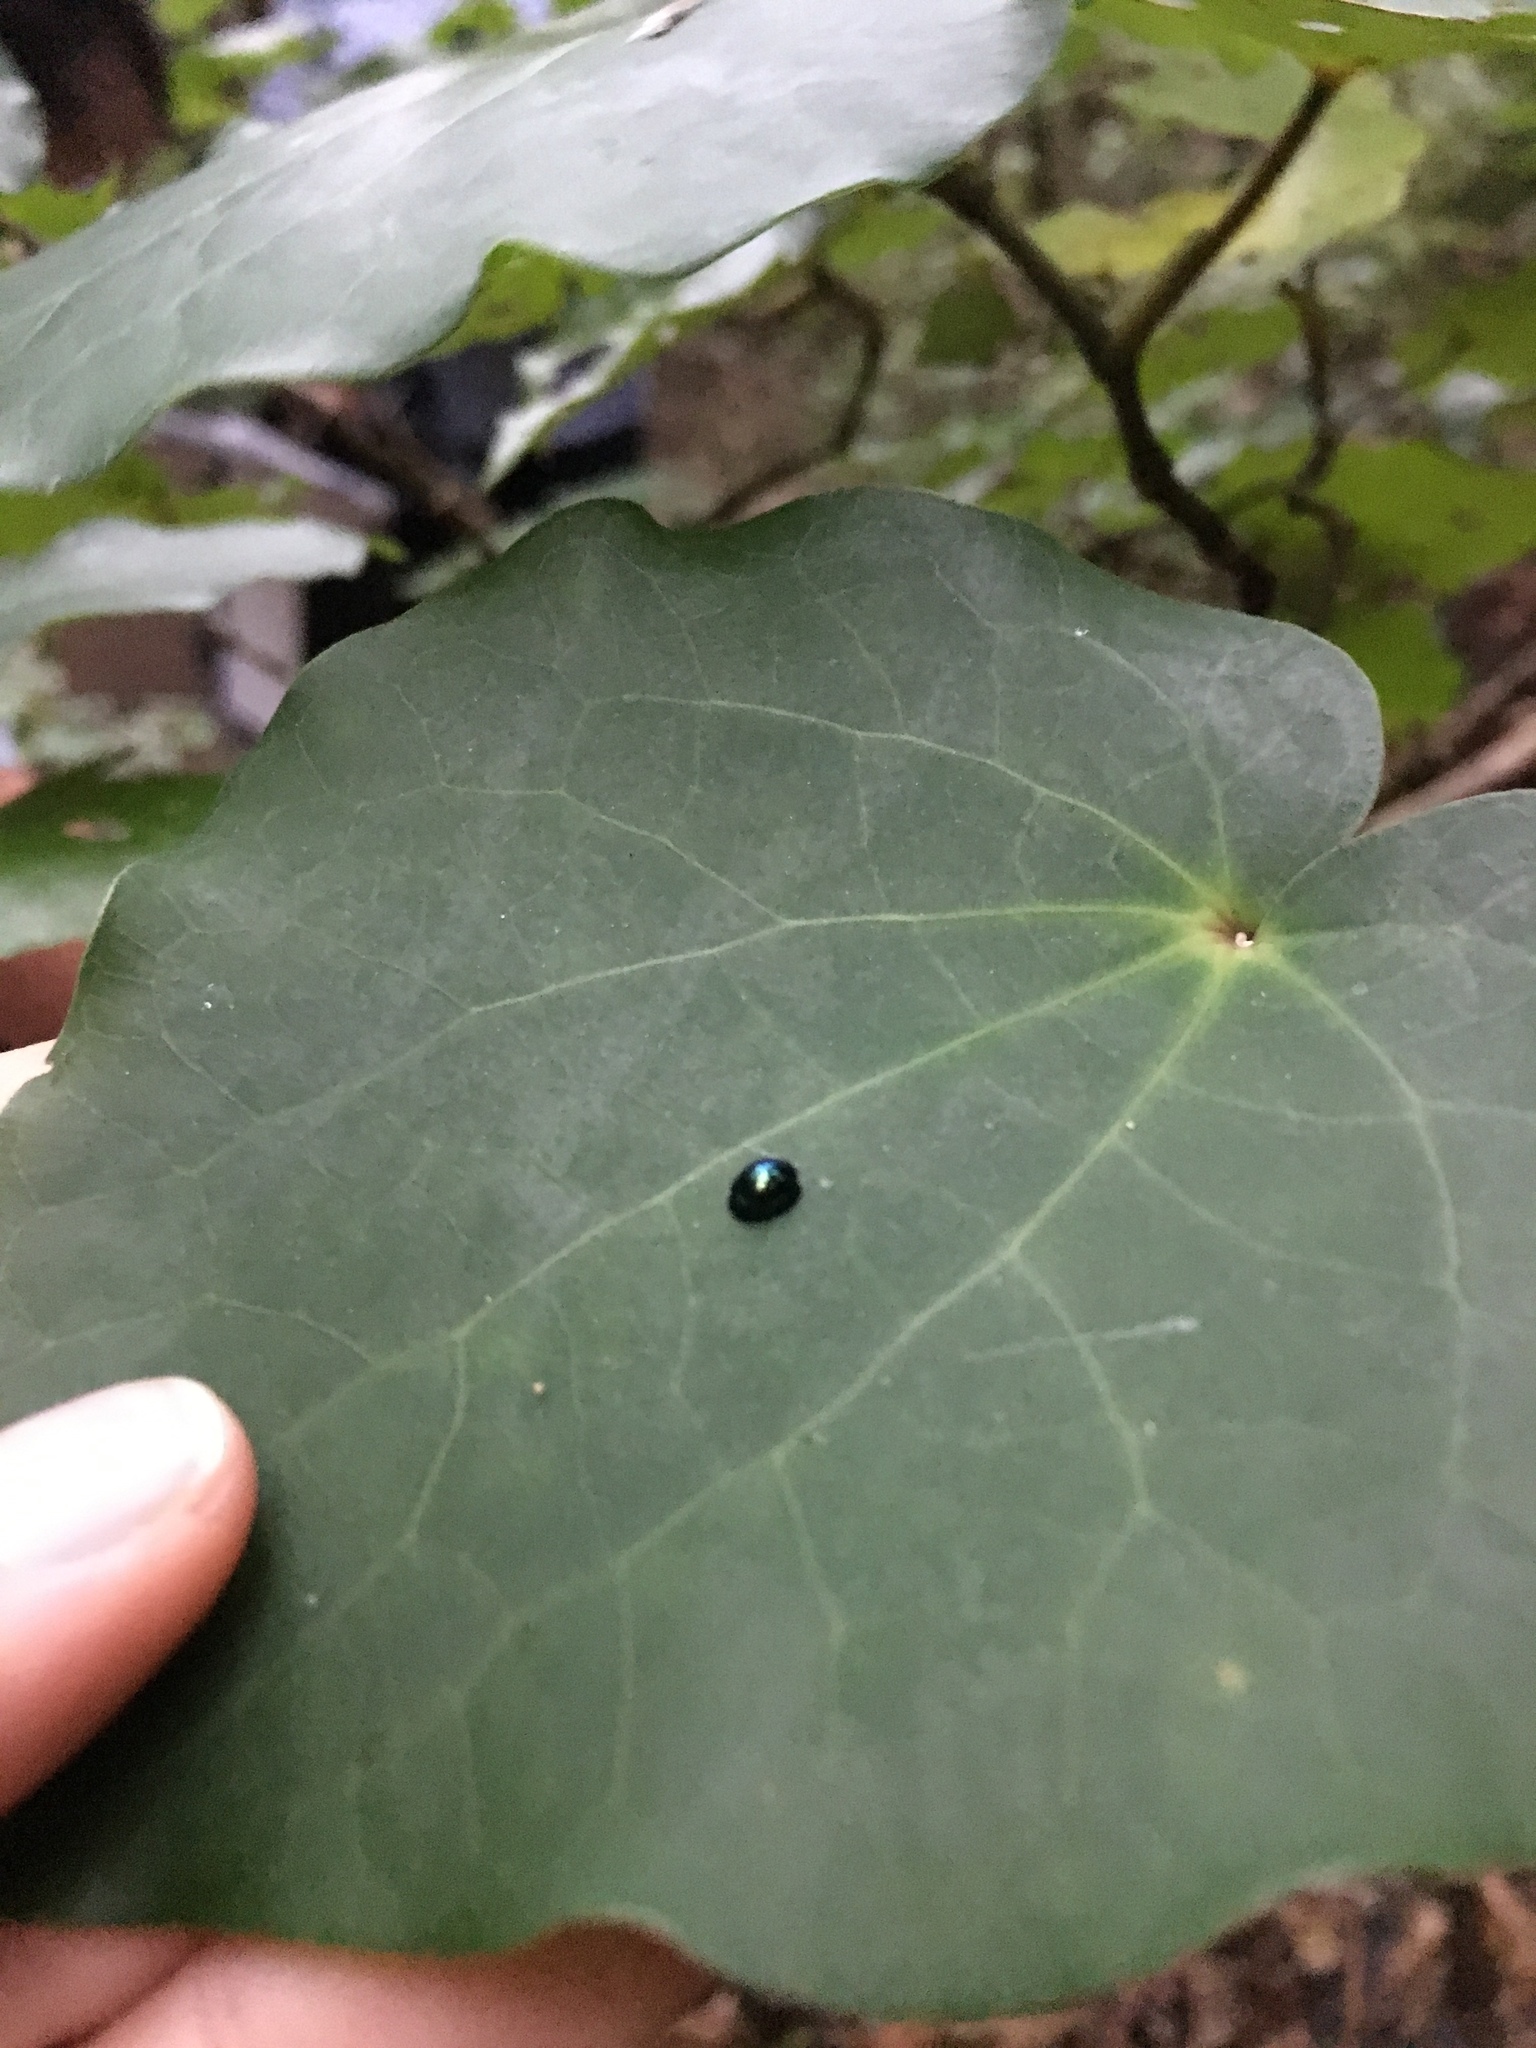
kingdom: Animalia
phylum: Arthropoda
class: Insecta
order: Coleoptera
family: Coccinellidae
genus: Halmus
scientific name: Halmus chalybeus
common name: Steel blue ladybird beetle
